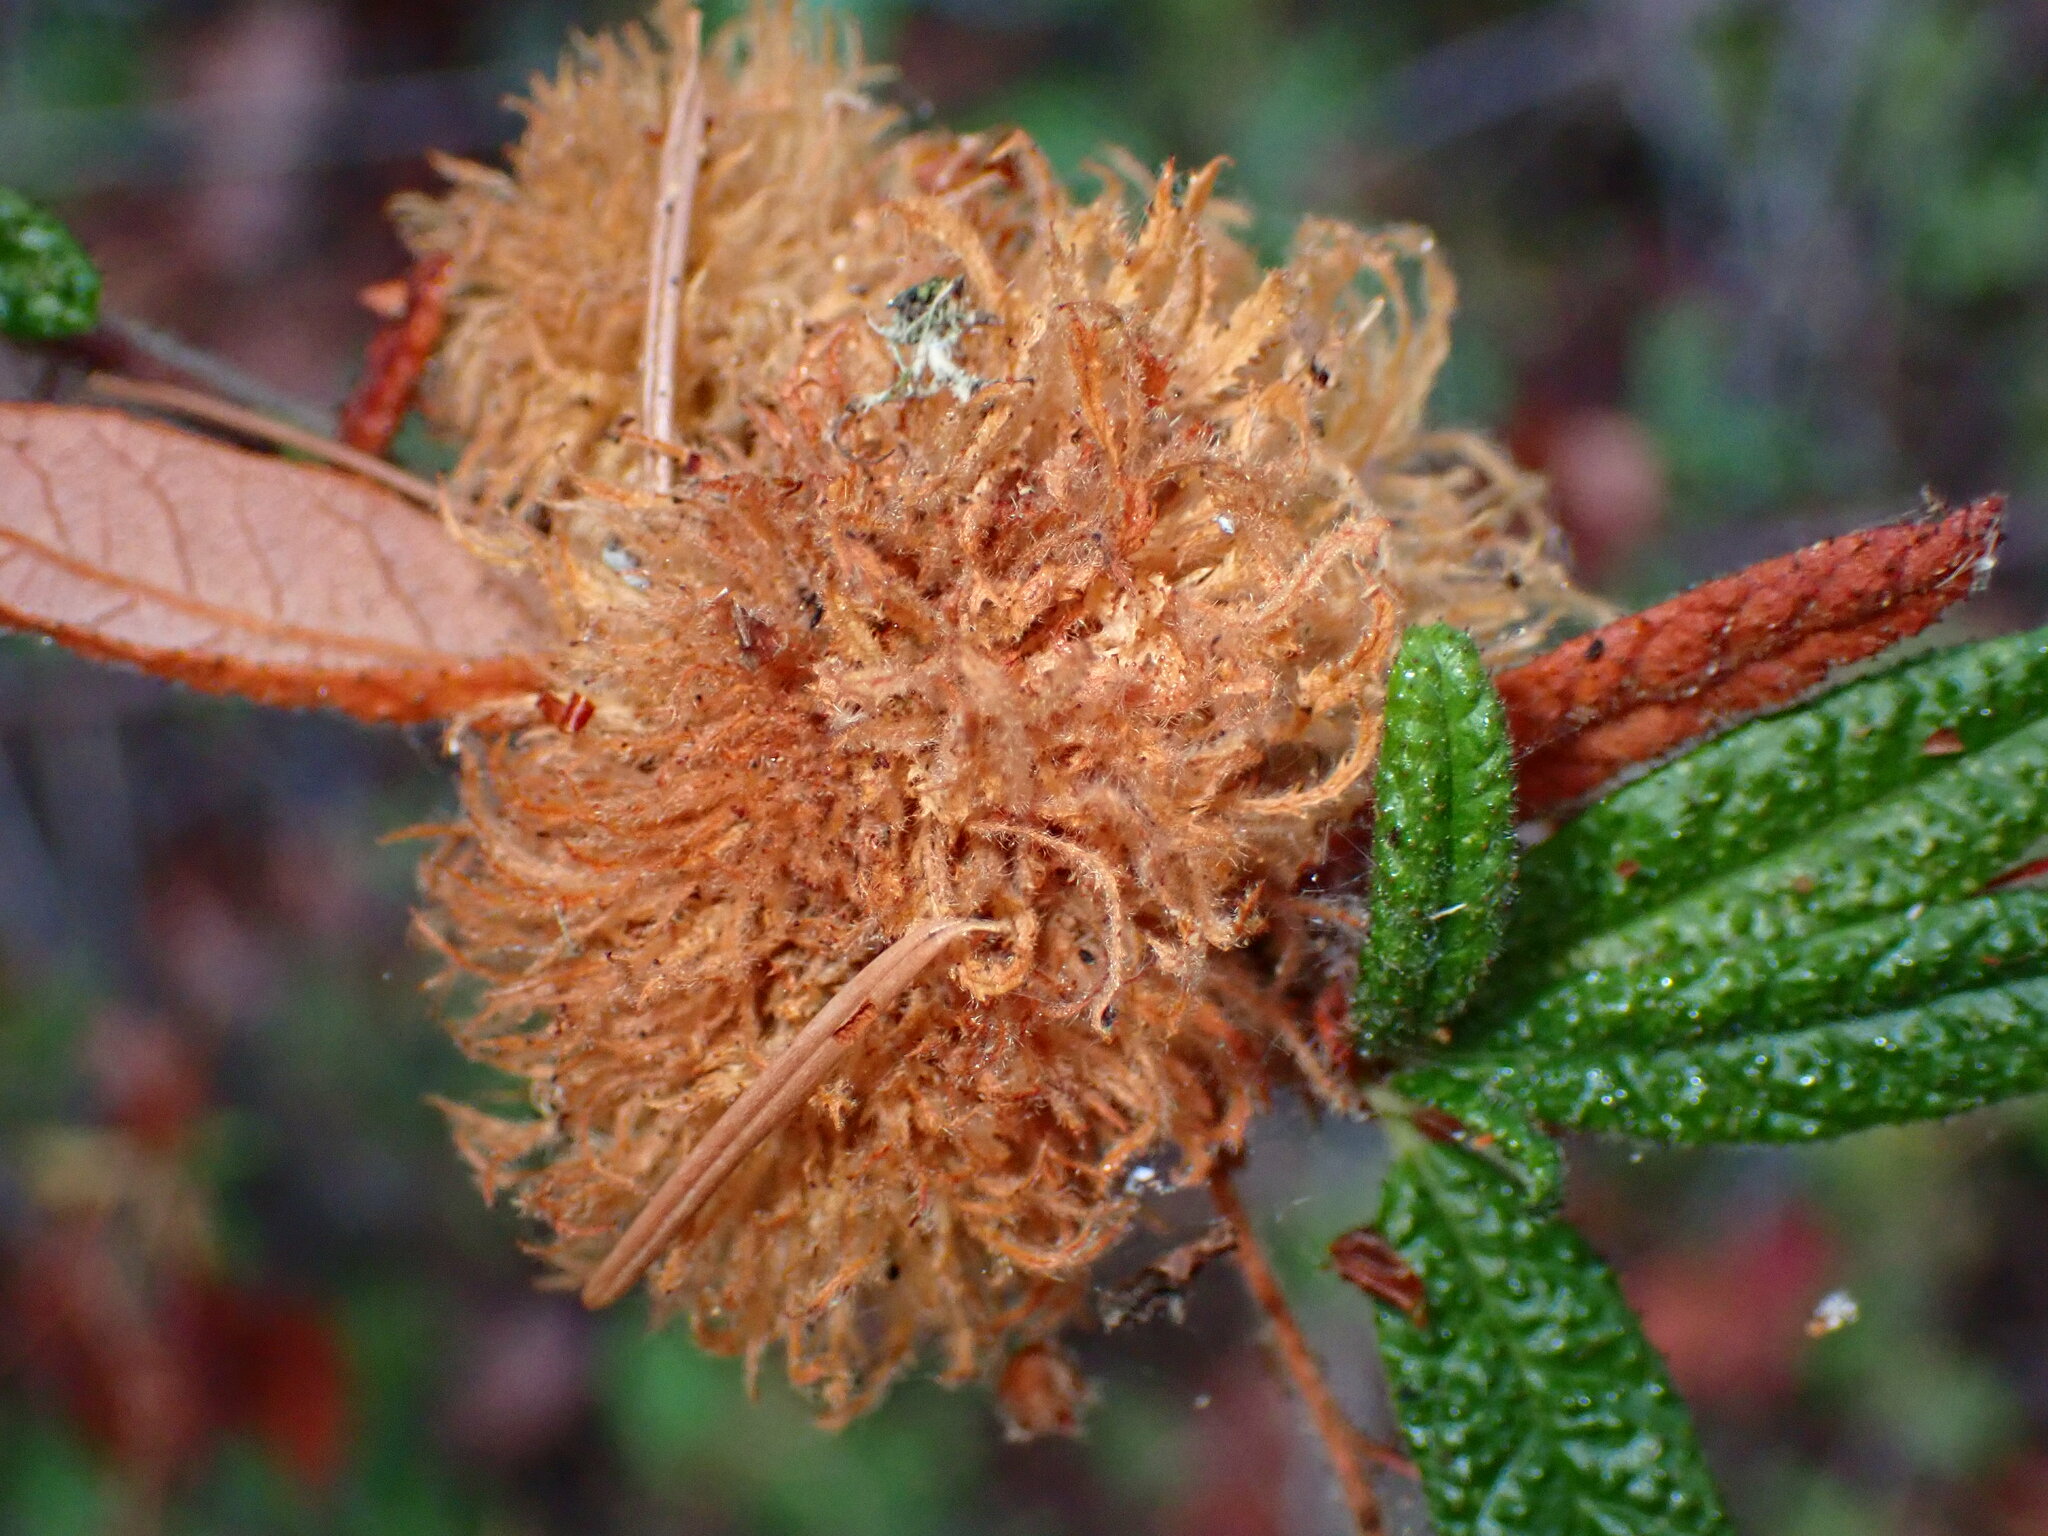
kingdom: Animalia
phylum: Arthropoda
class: Insecta
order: Diptera
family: Cecidomyiidae
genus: Asphondylia
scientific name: Asphondylia ceanothi
